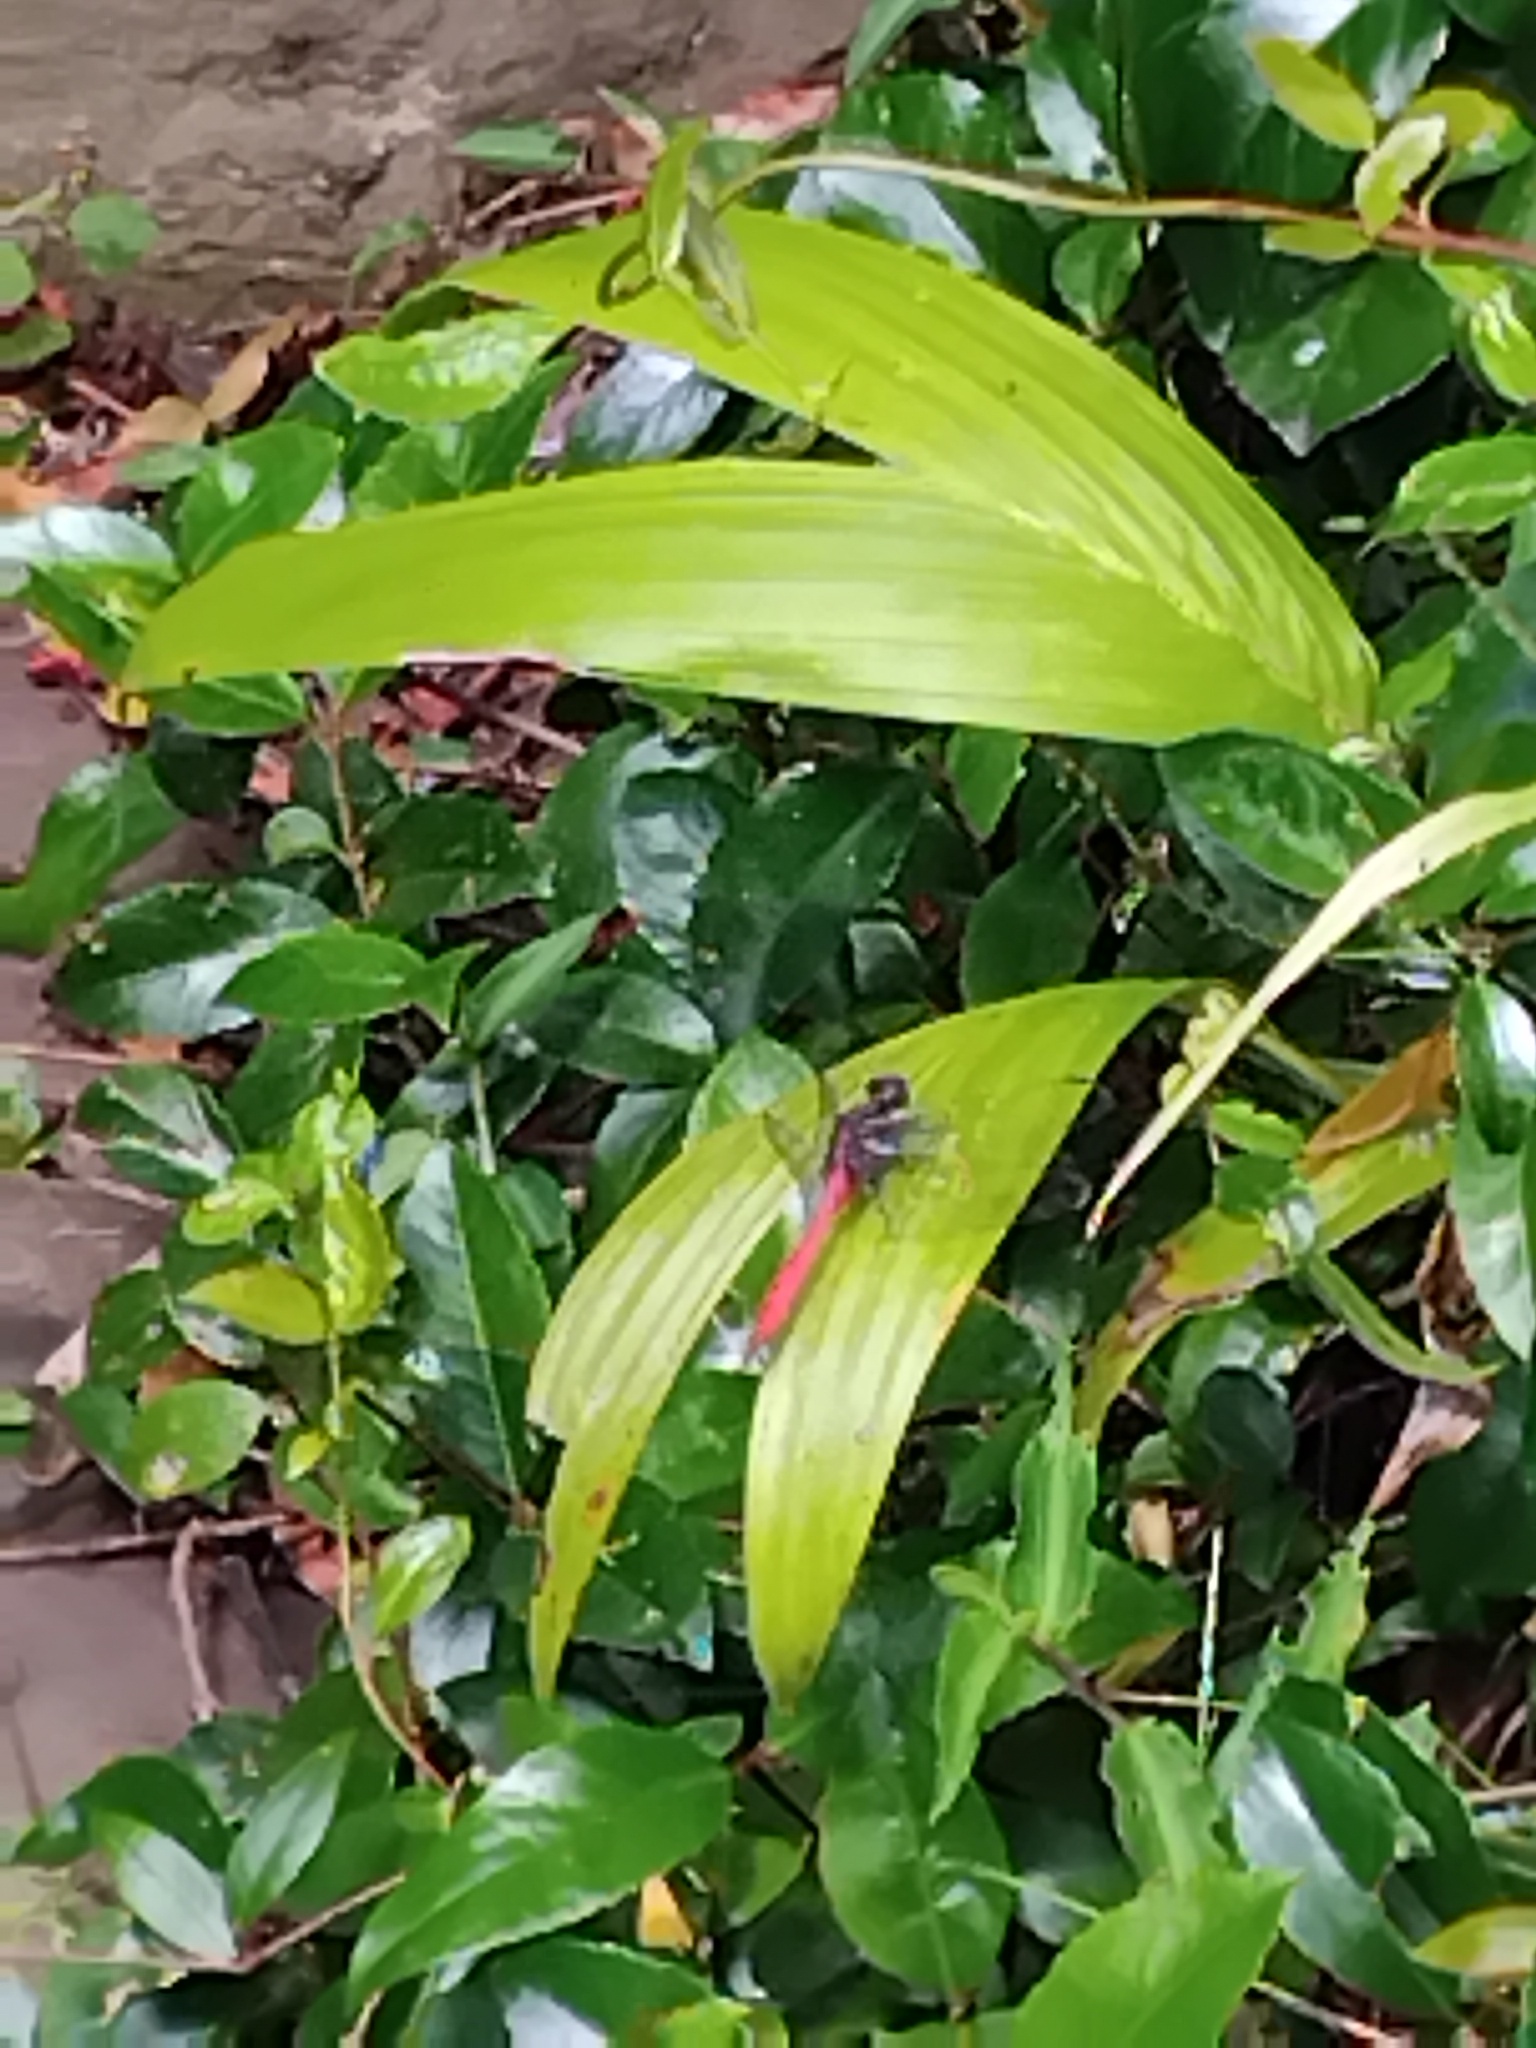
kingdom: Animalia
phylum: Arthropoda
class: Insecta
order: Odonata
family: Libellulidae
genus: Orthetrum
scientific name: Orthetrum villosovittatum
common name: Firery skimmer
